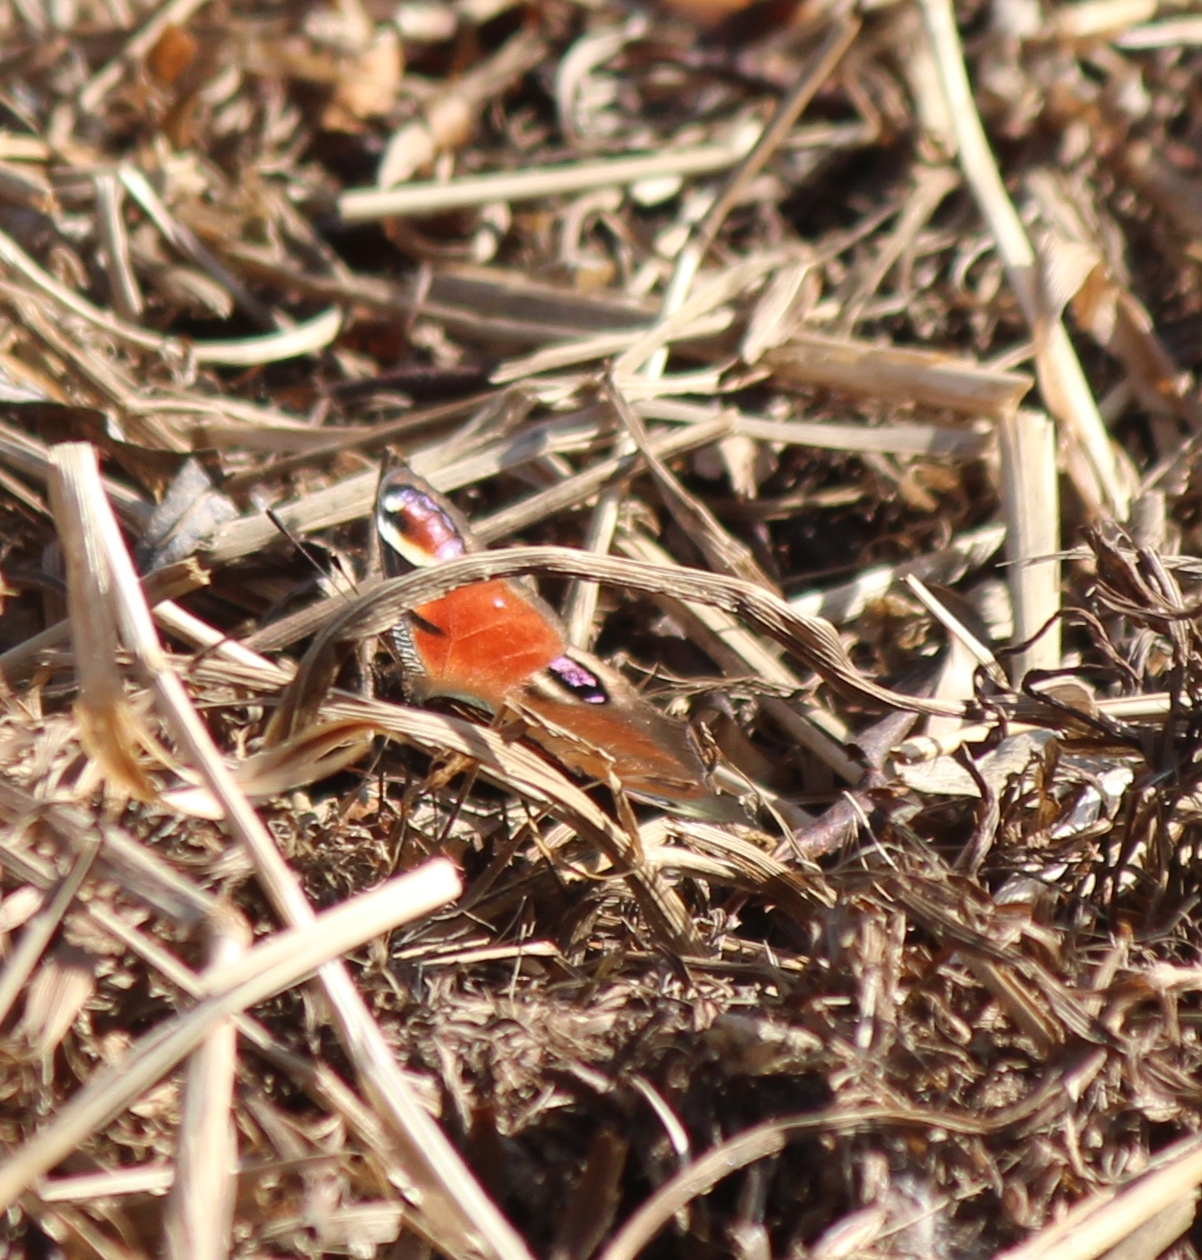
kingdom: Animalia
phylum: Arthropoda
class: Insecta
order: Lepidoptera
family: Nymphalidae
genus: Aglais
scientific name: Aglais io
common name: Peacock
